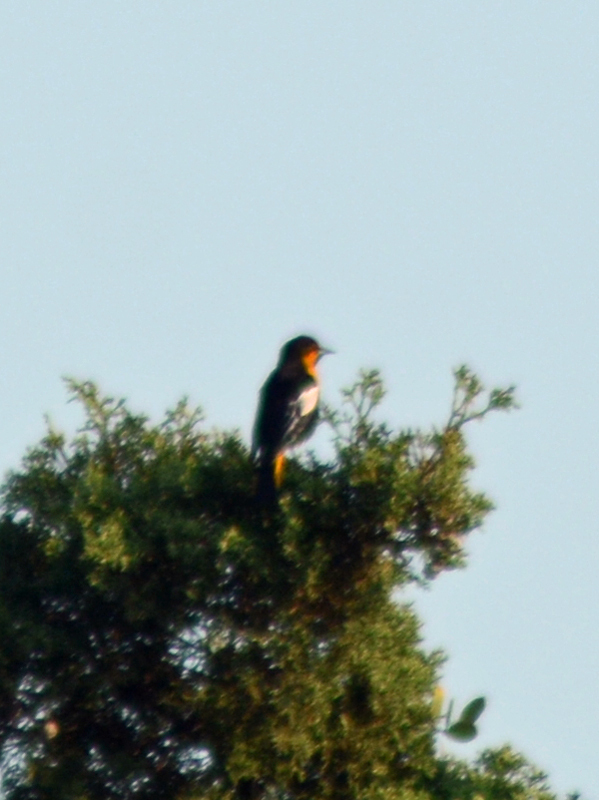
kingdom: Animalia
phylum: Chordata
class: Aves
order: Passeriformes
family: Icteridae
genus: Icterus
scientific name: Icterus abeillei
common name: Black-backed oriole
